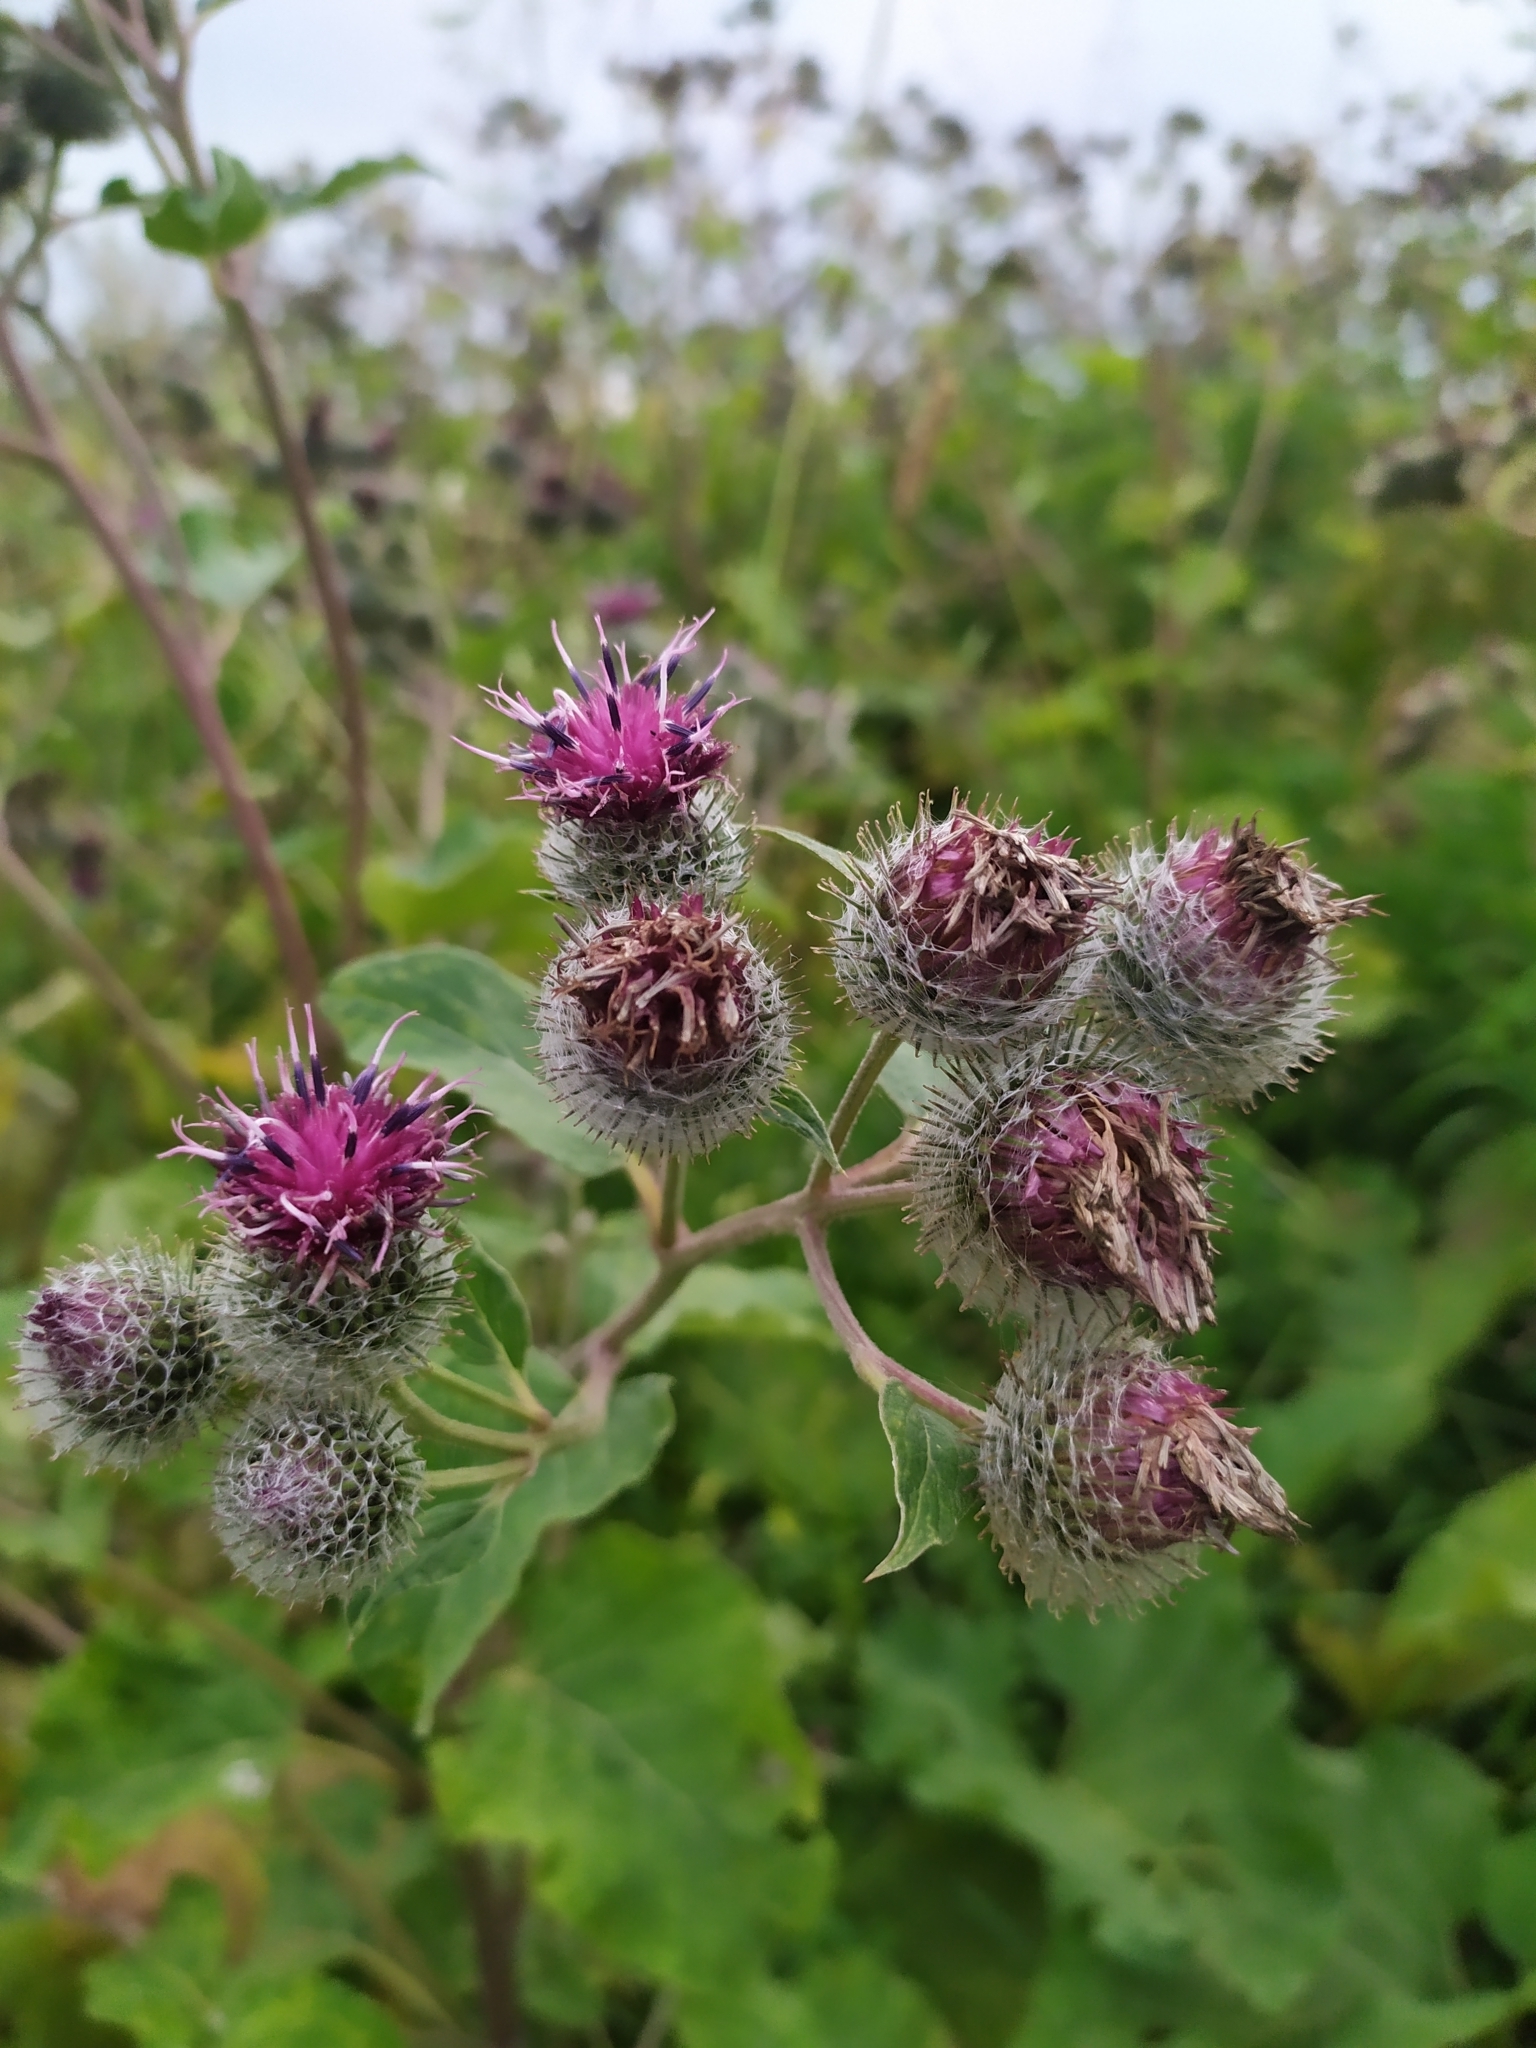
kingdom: Plantae
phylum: Tracheophyta
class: Magnoliopsida
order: Asterales
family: Asteraceae
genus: Arctium
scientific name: Arctium tomentosum
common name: Woolly burdock
